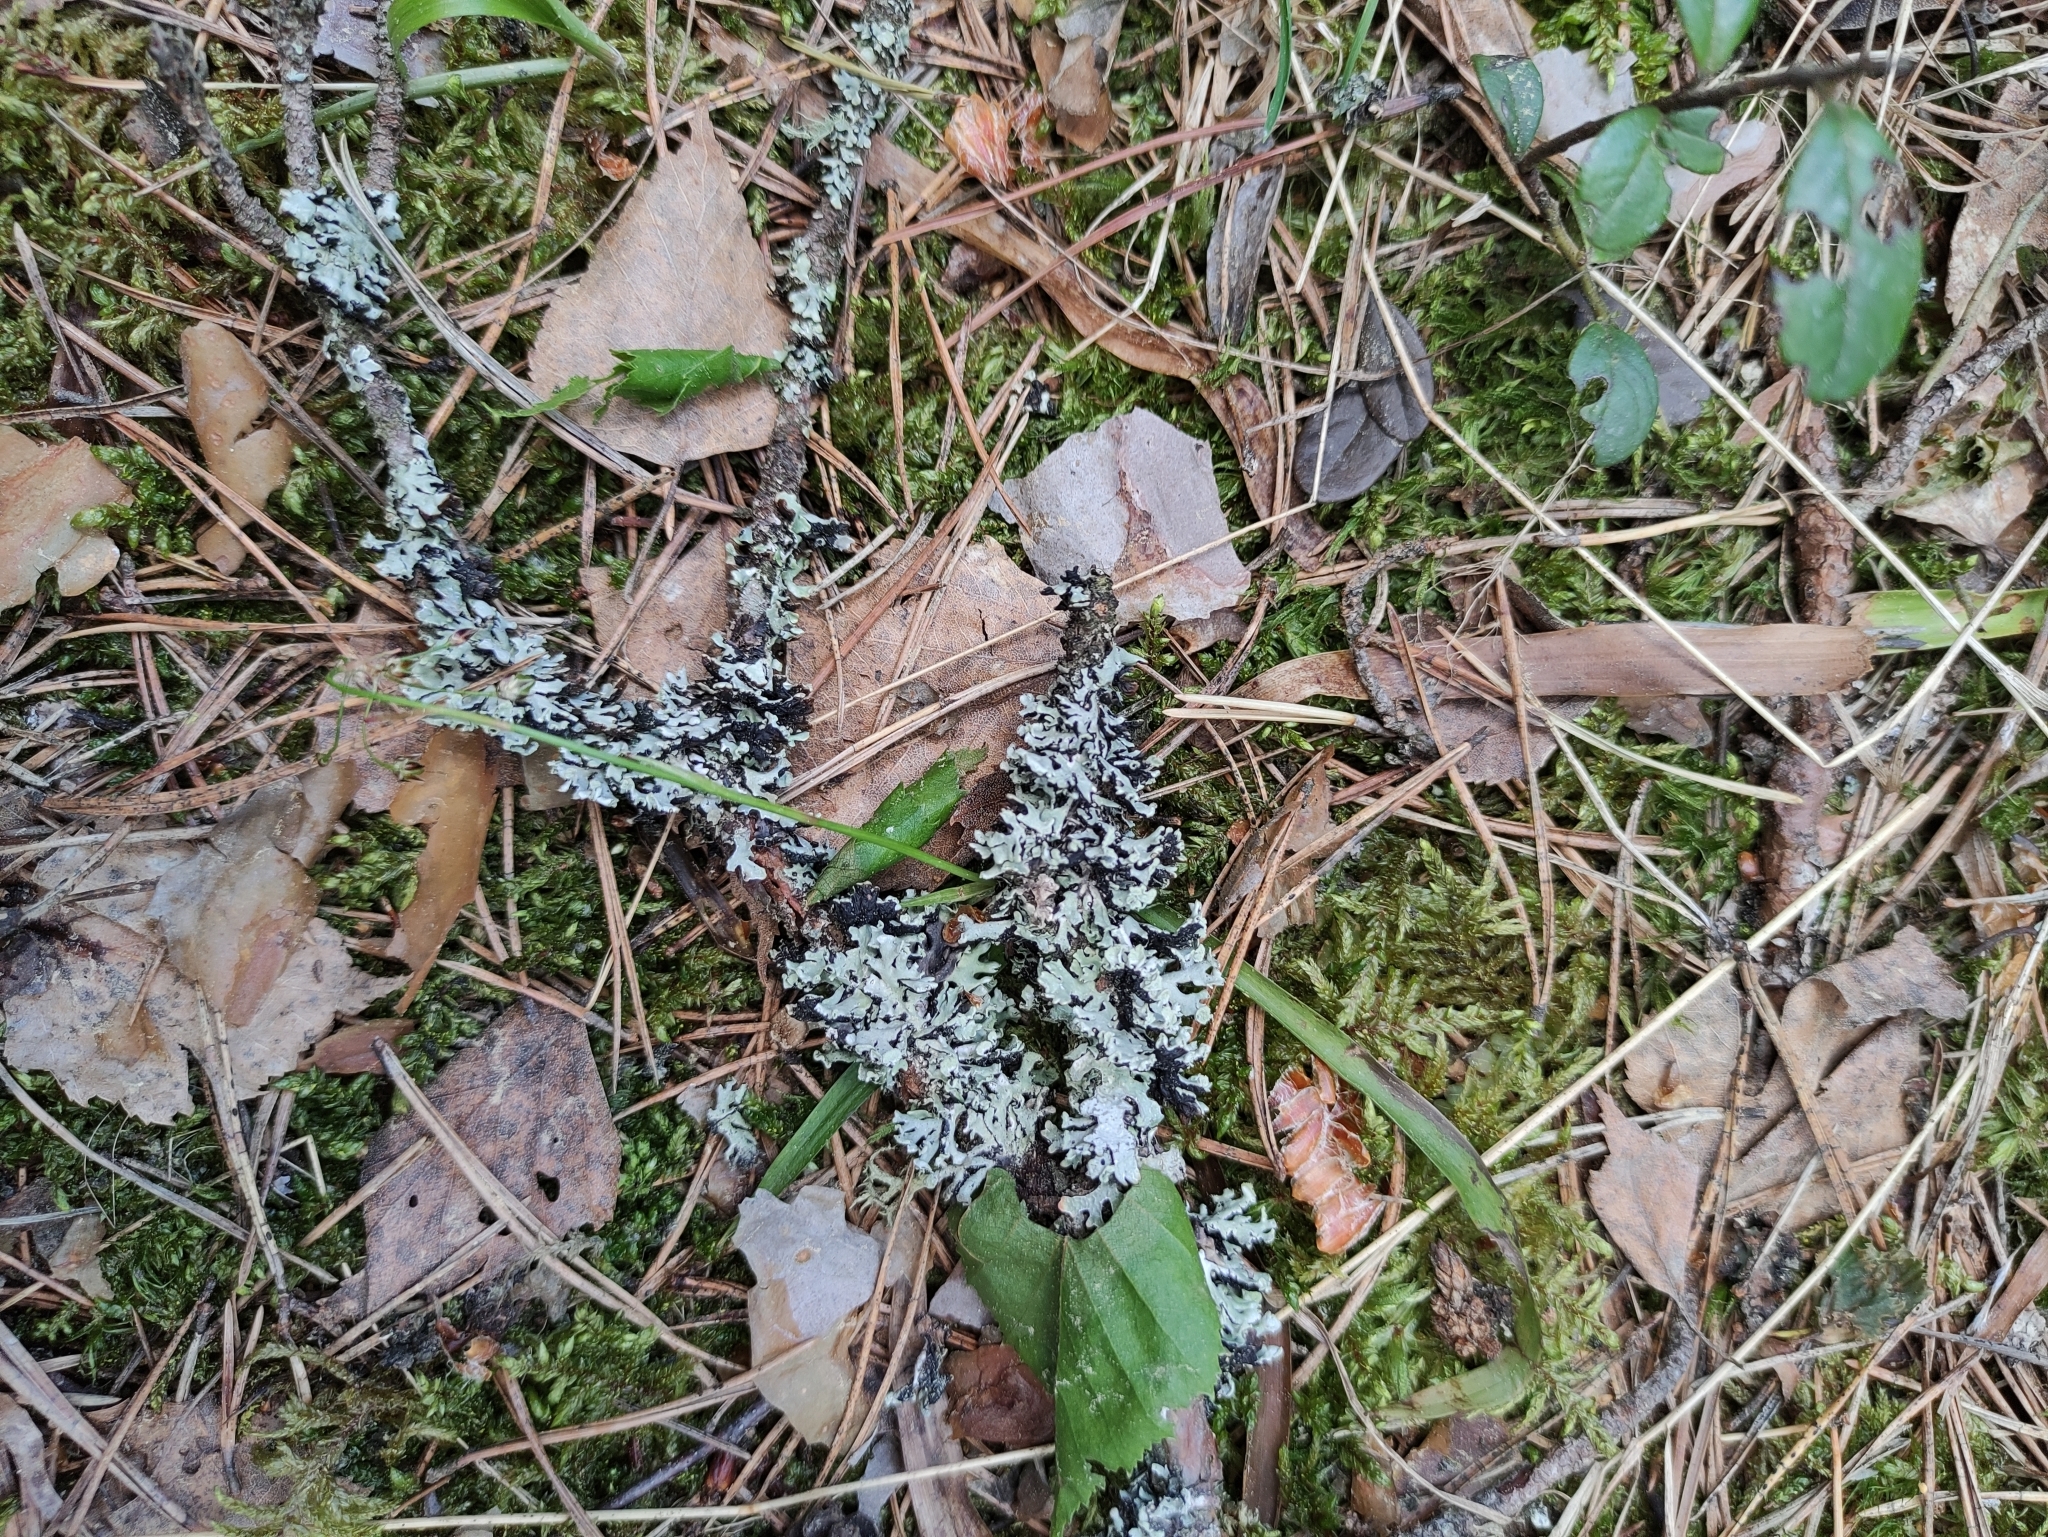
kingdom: Fungi
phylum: Ascomycota
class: Lecanoromycetes
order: Lecanorales
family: Parmeliaceae
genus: Hypogymnia
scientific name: Hypogymnia physodes
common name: Dark crottle
